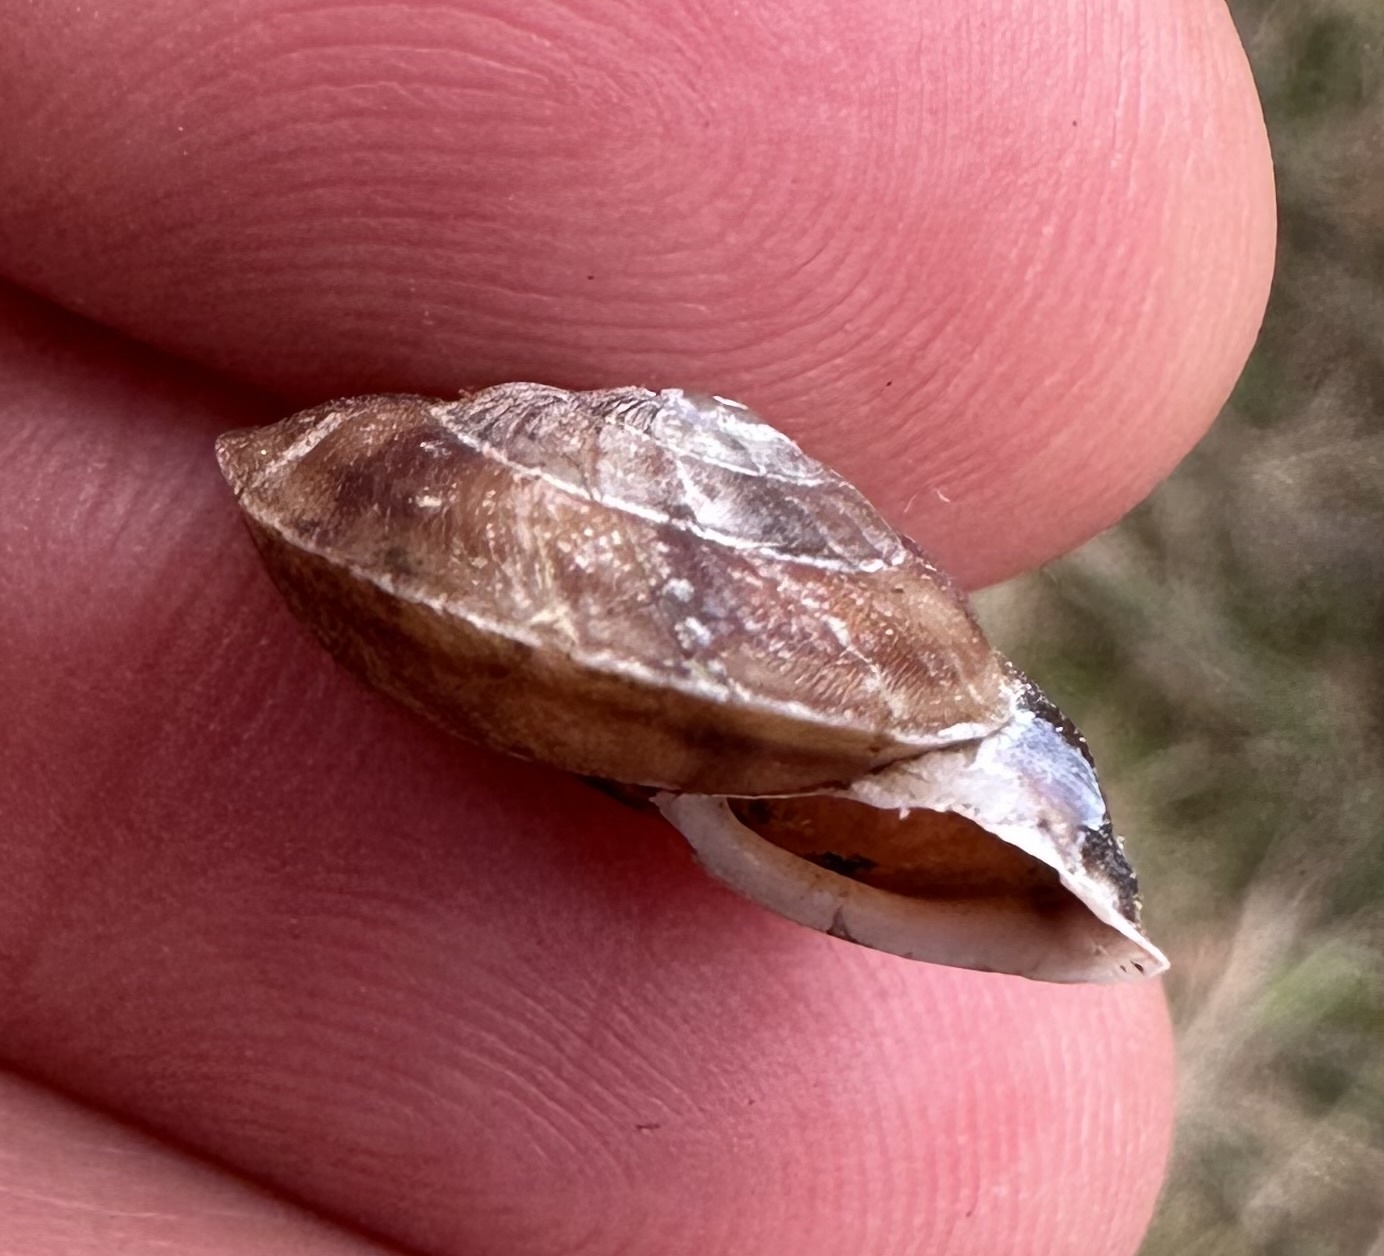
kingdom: Animalia
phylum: Mollusca
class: Gastropoda
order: Stylommatophora
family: Helicidae
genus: Helicigona
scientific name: Helicigona lapicida
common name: Lapidary snail
